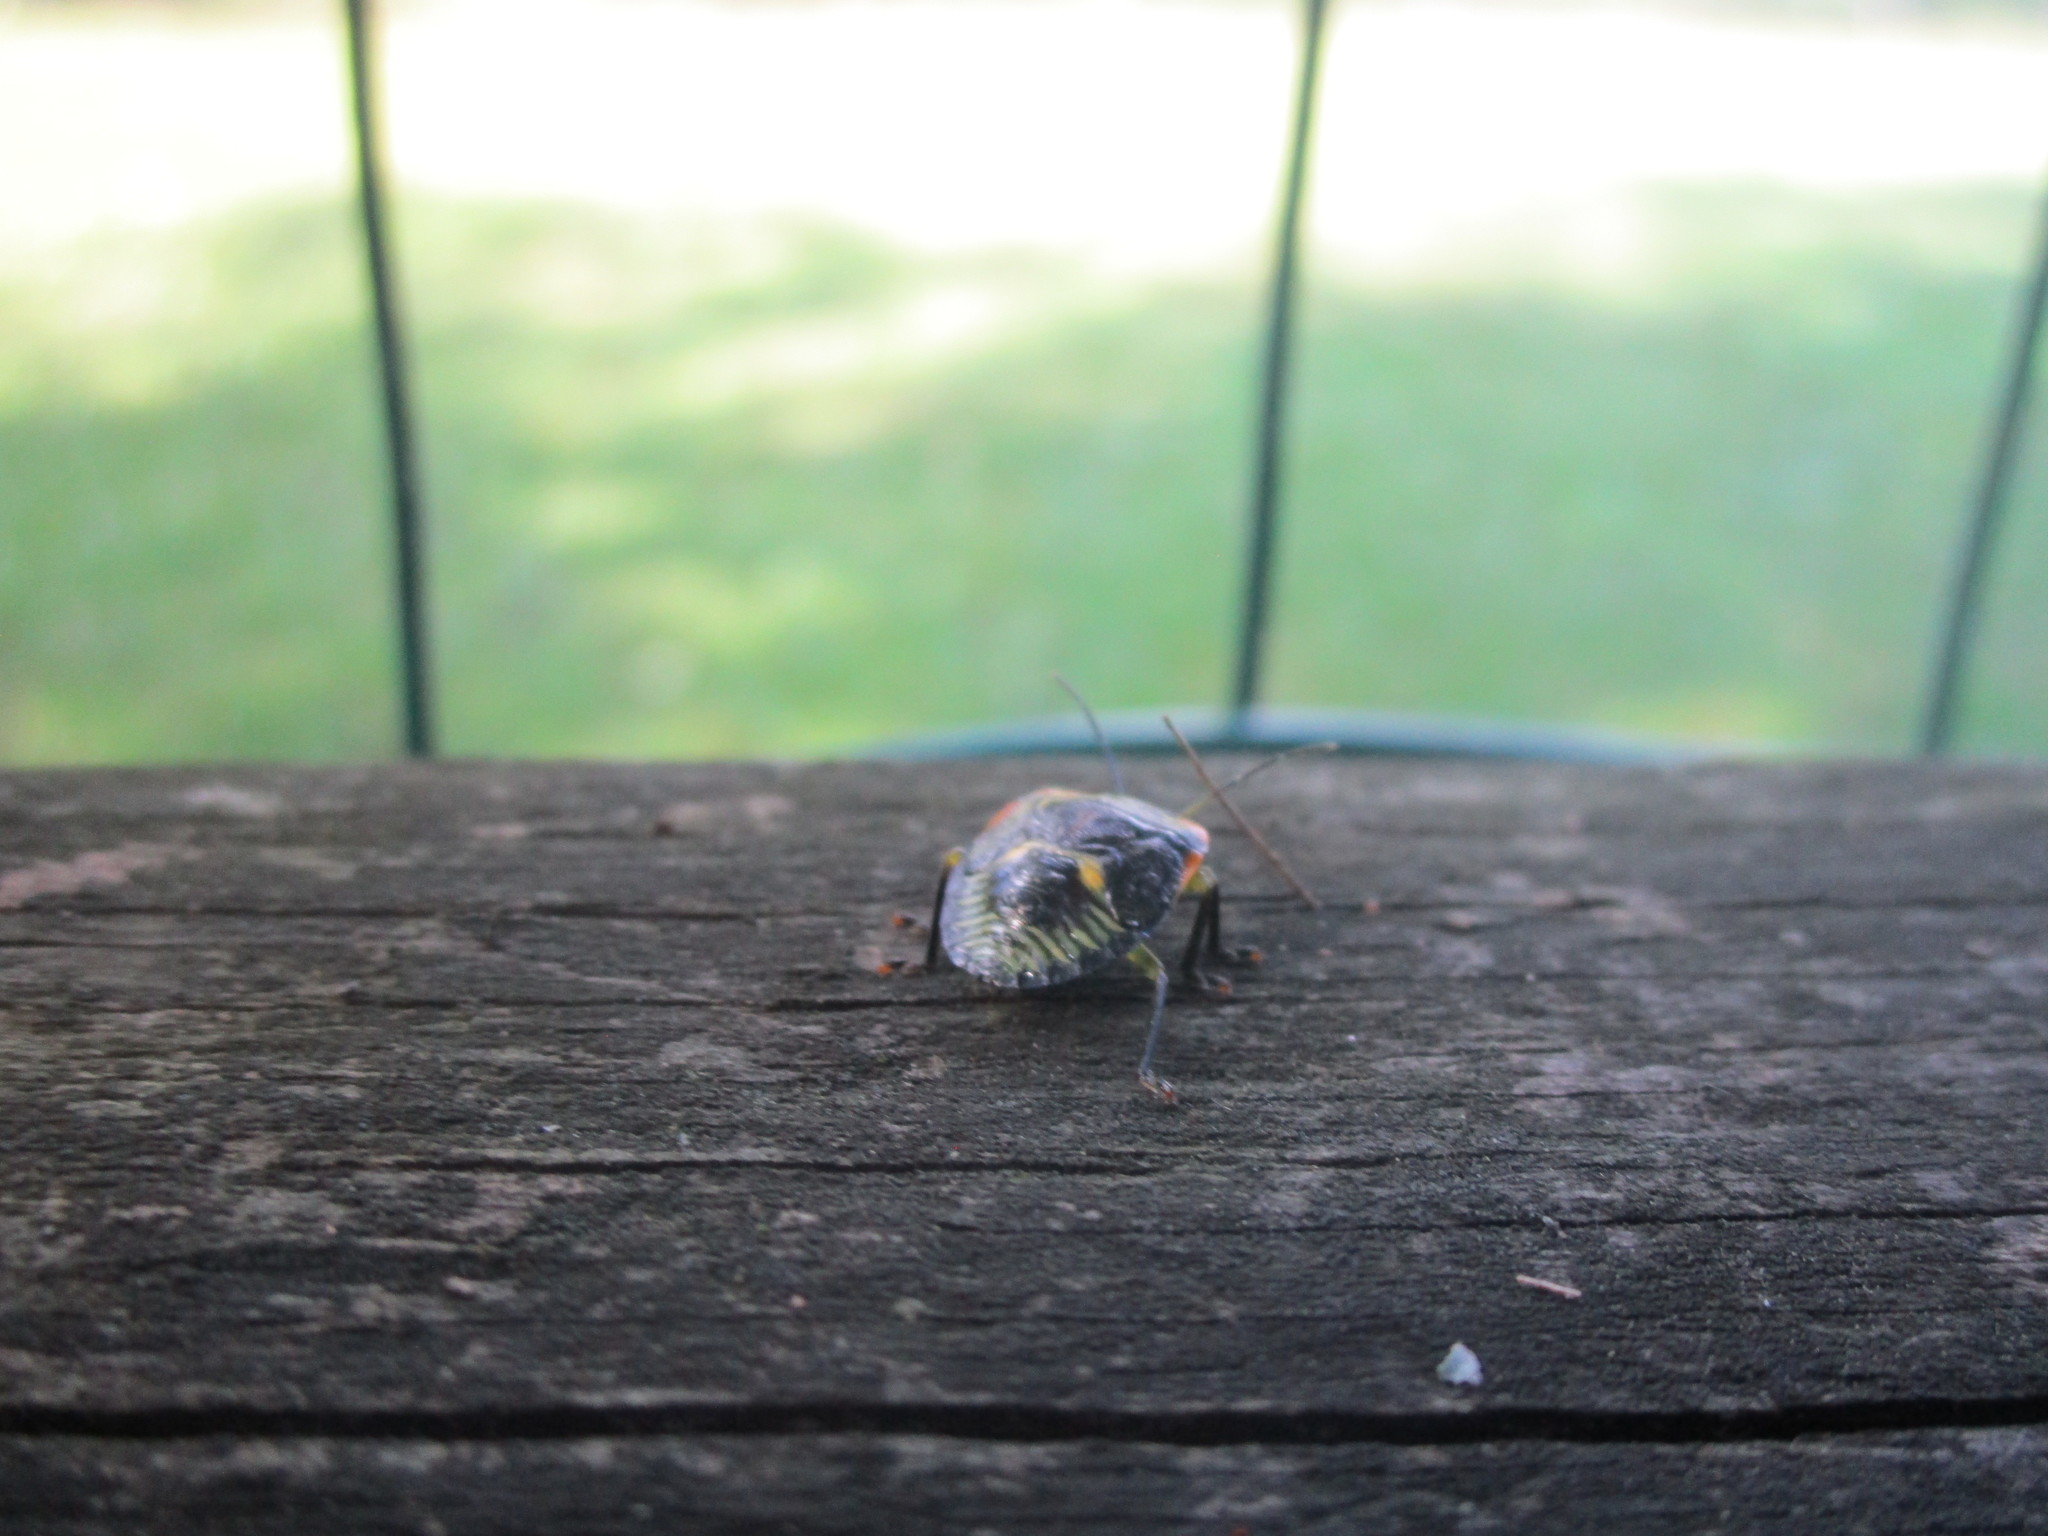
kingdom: Animalia
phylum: Arthropoda
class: Insecta
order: Hemiptera
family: Pentatomidae
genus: Chinavia
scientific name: Chinavia hilaris
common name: Green stink bug
